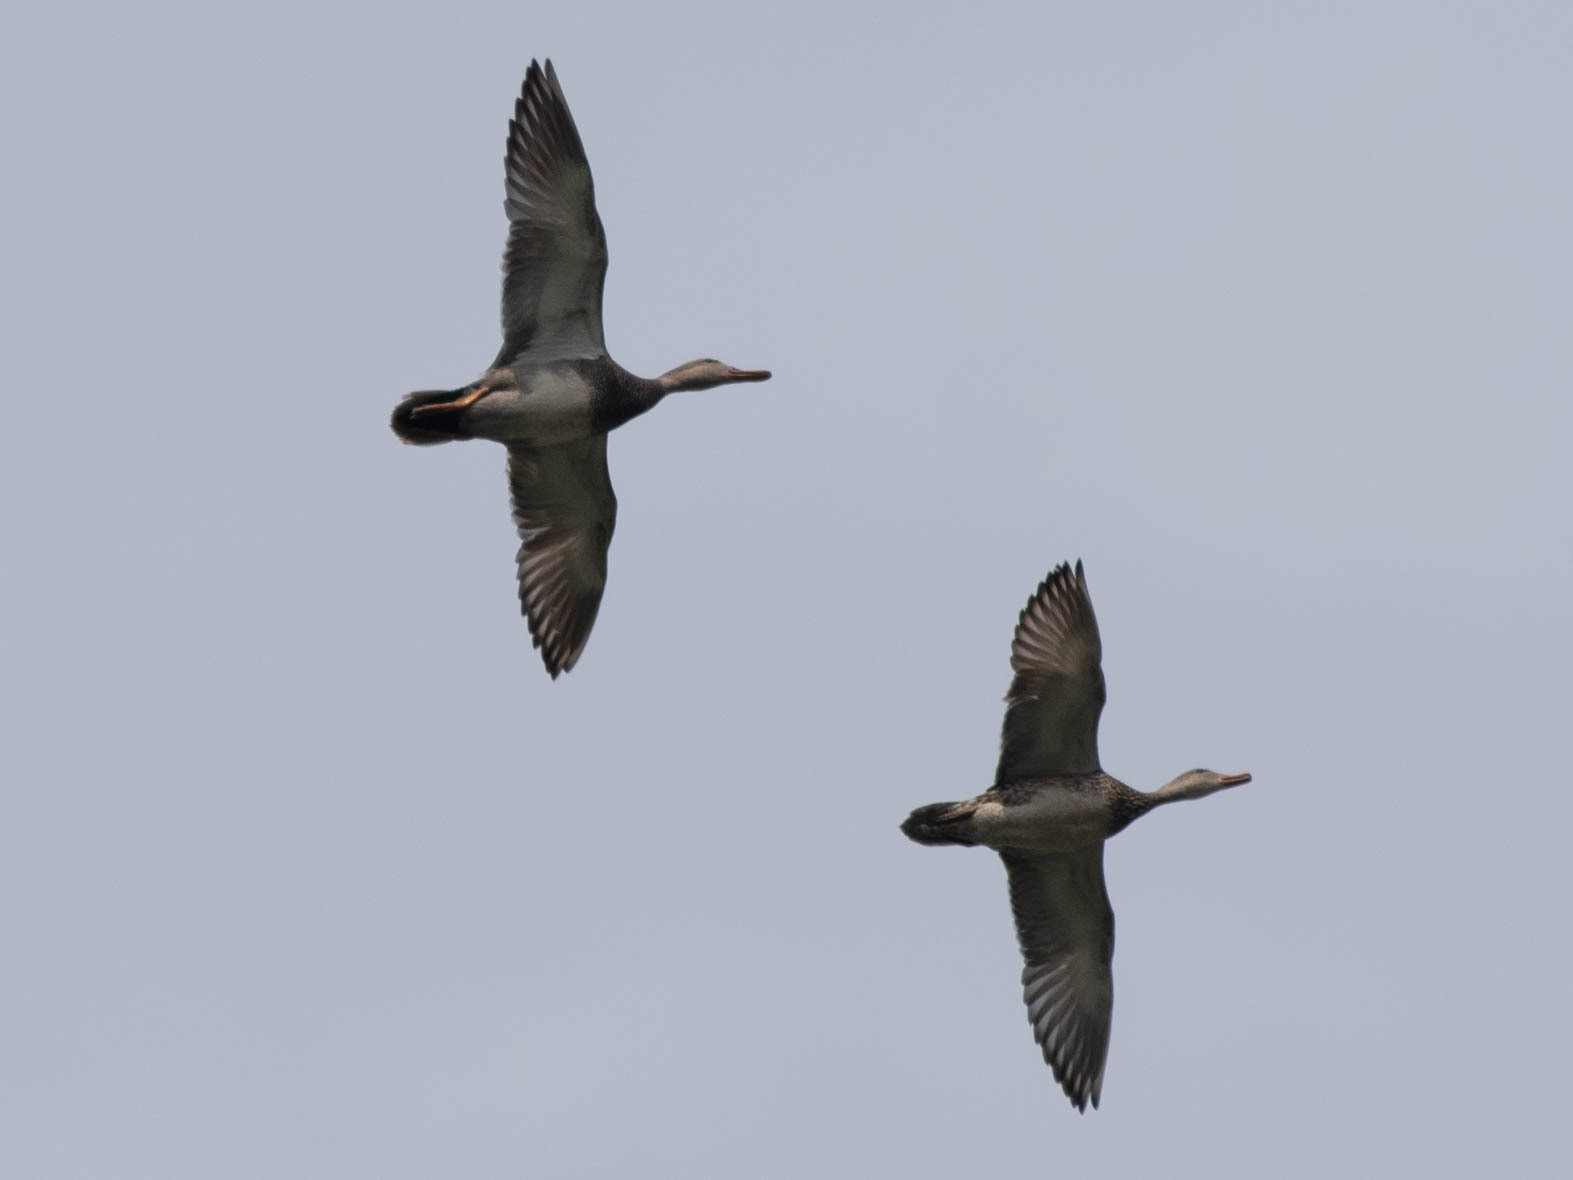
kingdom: Animalia
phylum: Chordata
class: Aves
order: Anseriformes
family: Anatidae
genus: Mareca
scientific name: Mareca strepera
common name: Gadwall
